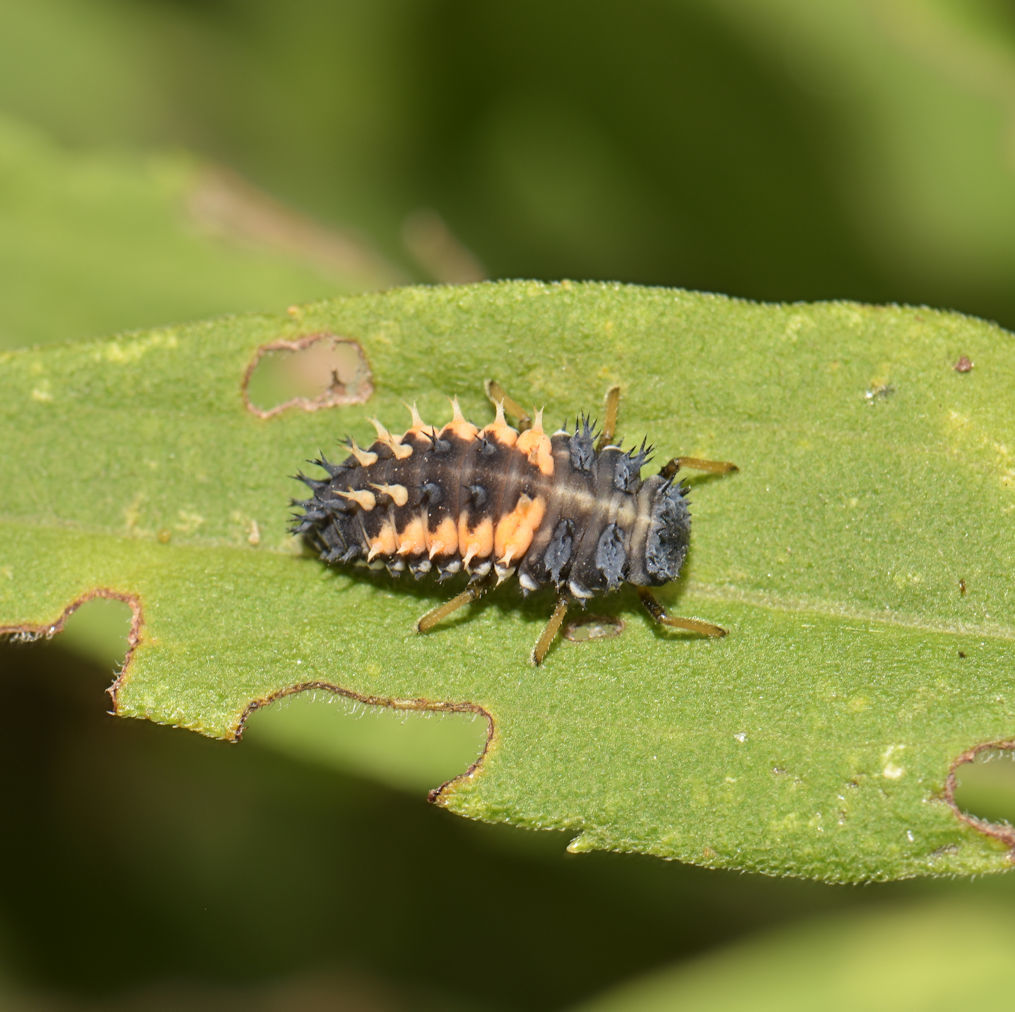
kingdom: Animalia
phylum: Arthropoda
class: Insecta
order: Coleoptera
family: Coccinellidae
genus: Harmonia
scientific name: Harmonia axyridis
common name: Harlequin ladybird
